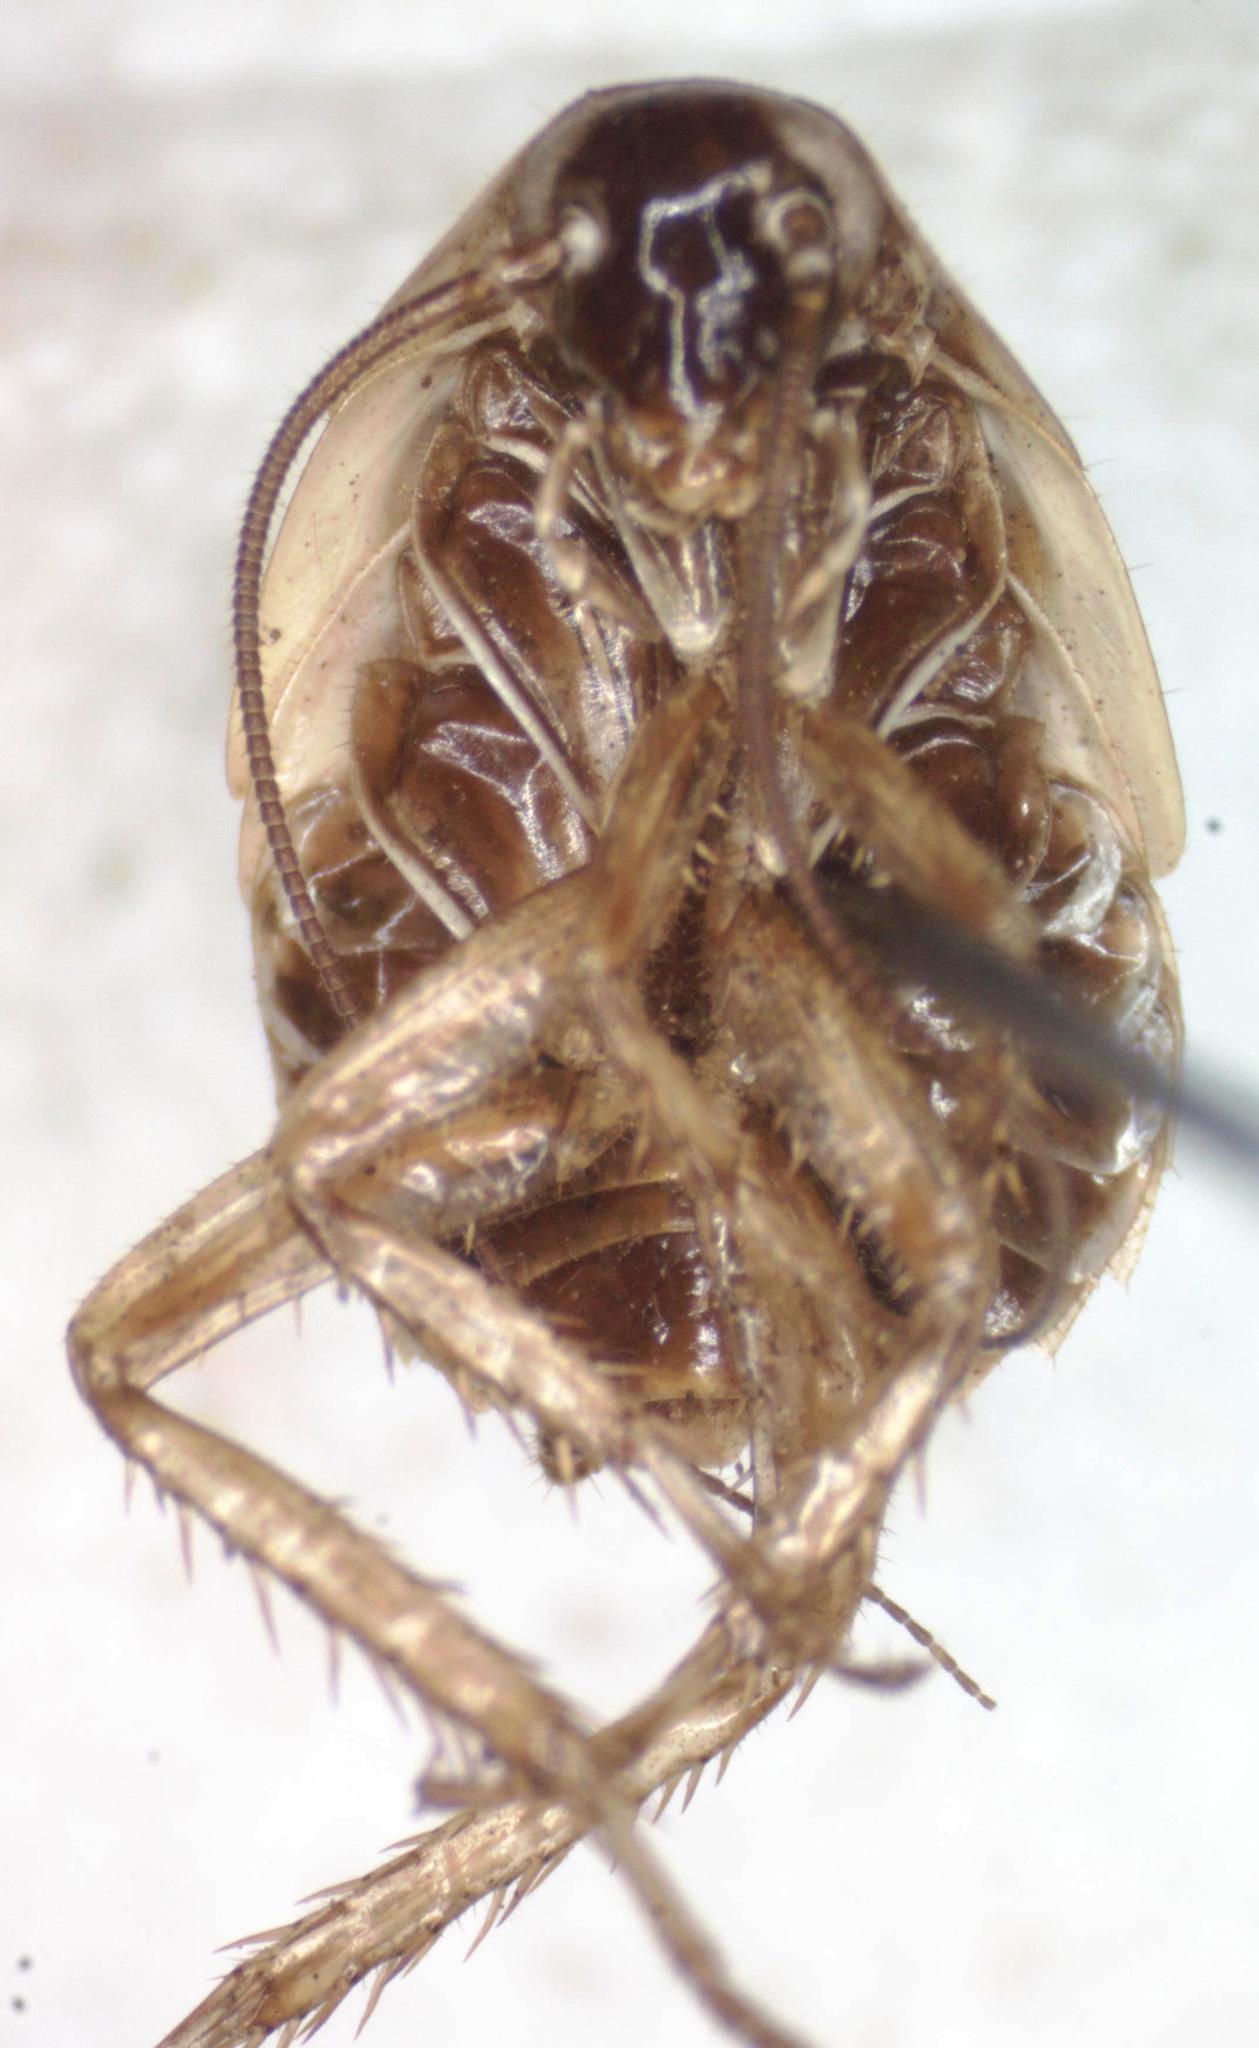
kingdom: Animalia
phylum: Arthropoda
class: Insecta
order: Blattodea
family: Ectobiidae
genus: Blattella
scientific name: Blattella germanica
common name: German cockroach
